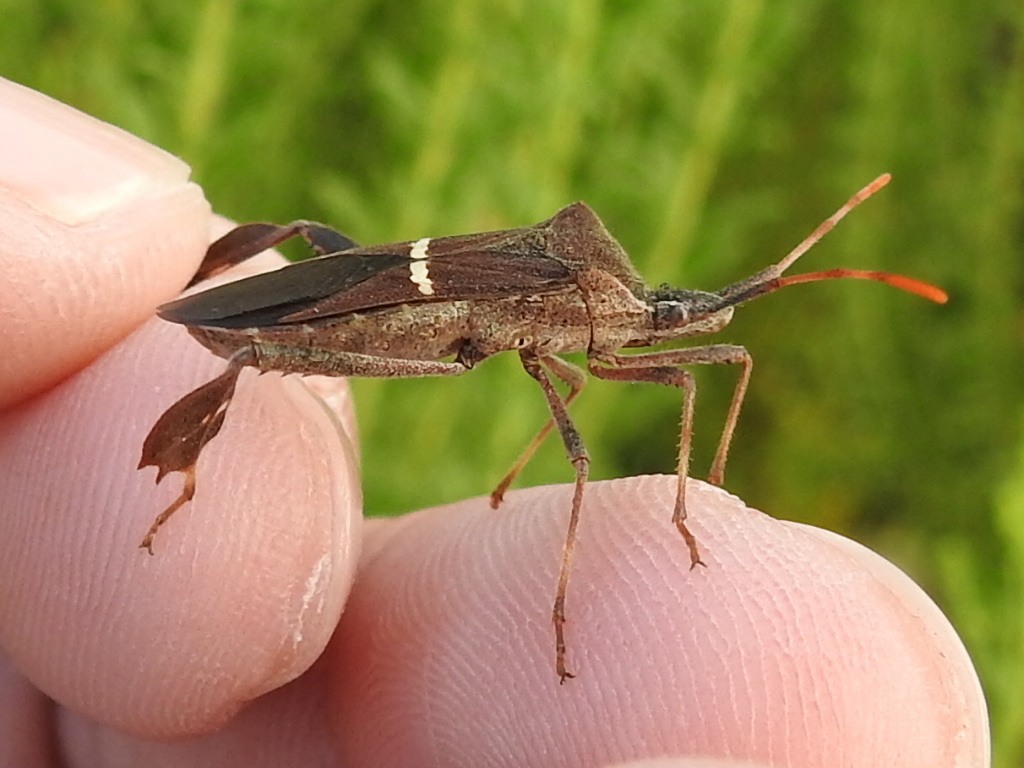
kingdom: Animalia
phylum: Arthropoda
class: Insecta
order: Hemiptera
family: Coreidae
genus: Leptoglossus
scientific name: Leptoglossus phyllopus
